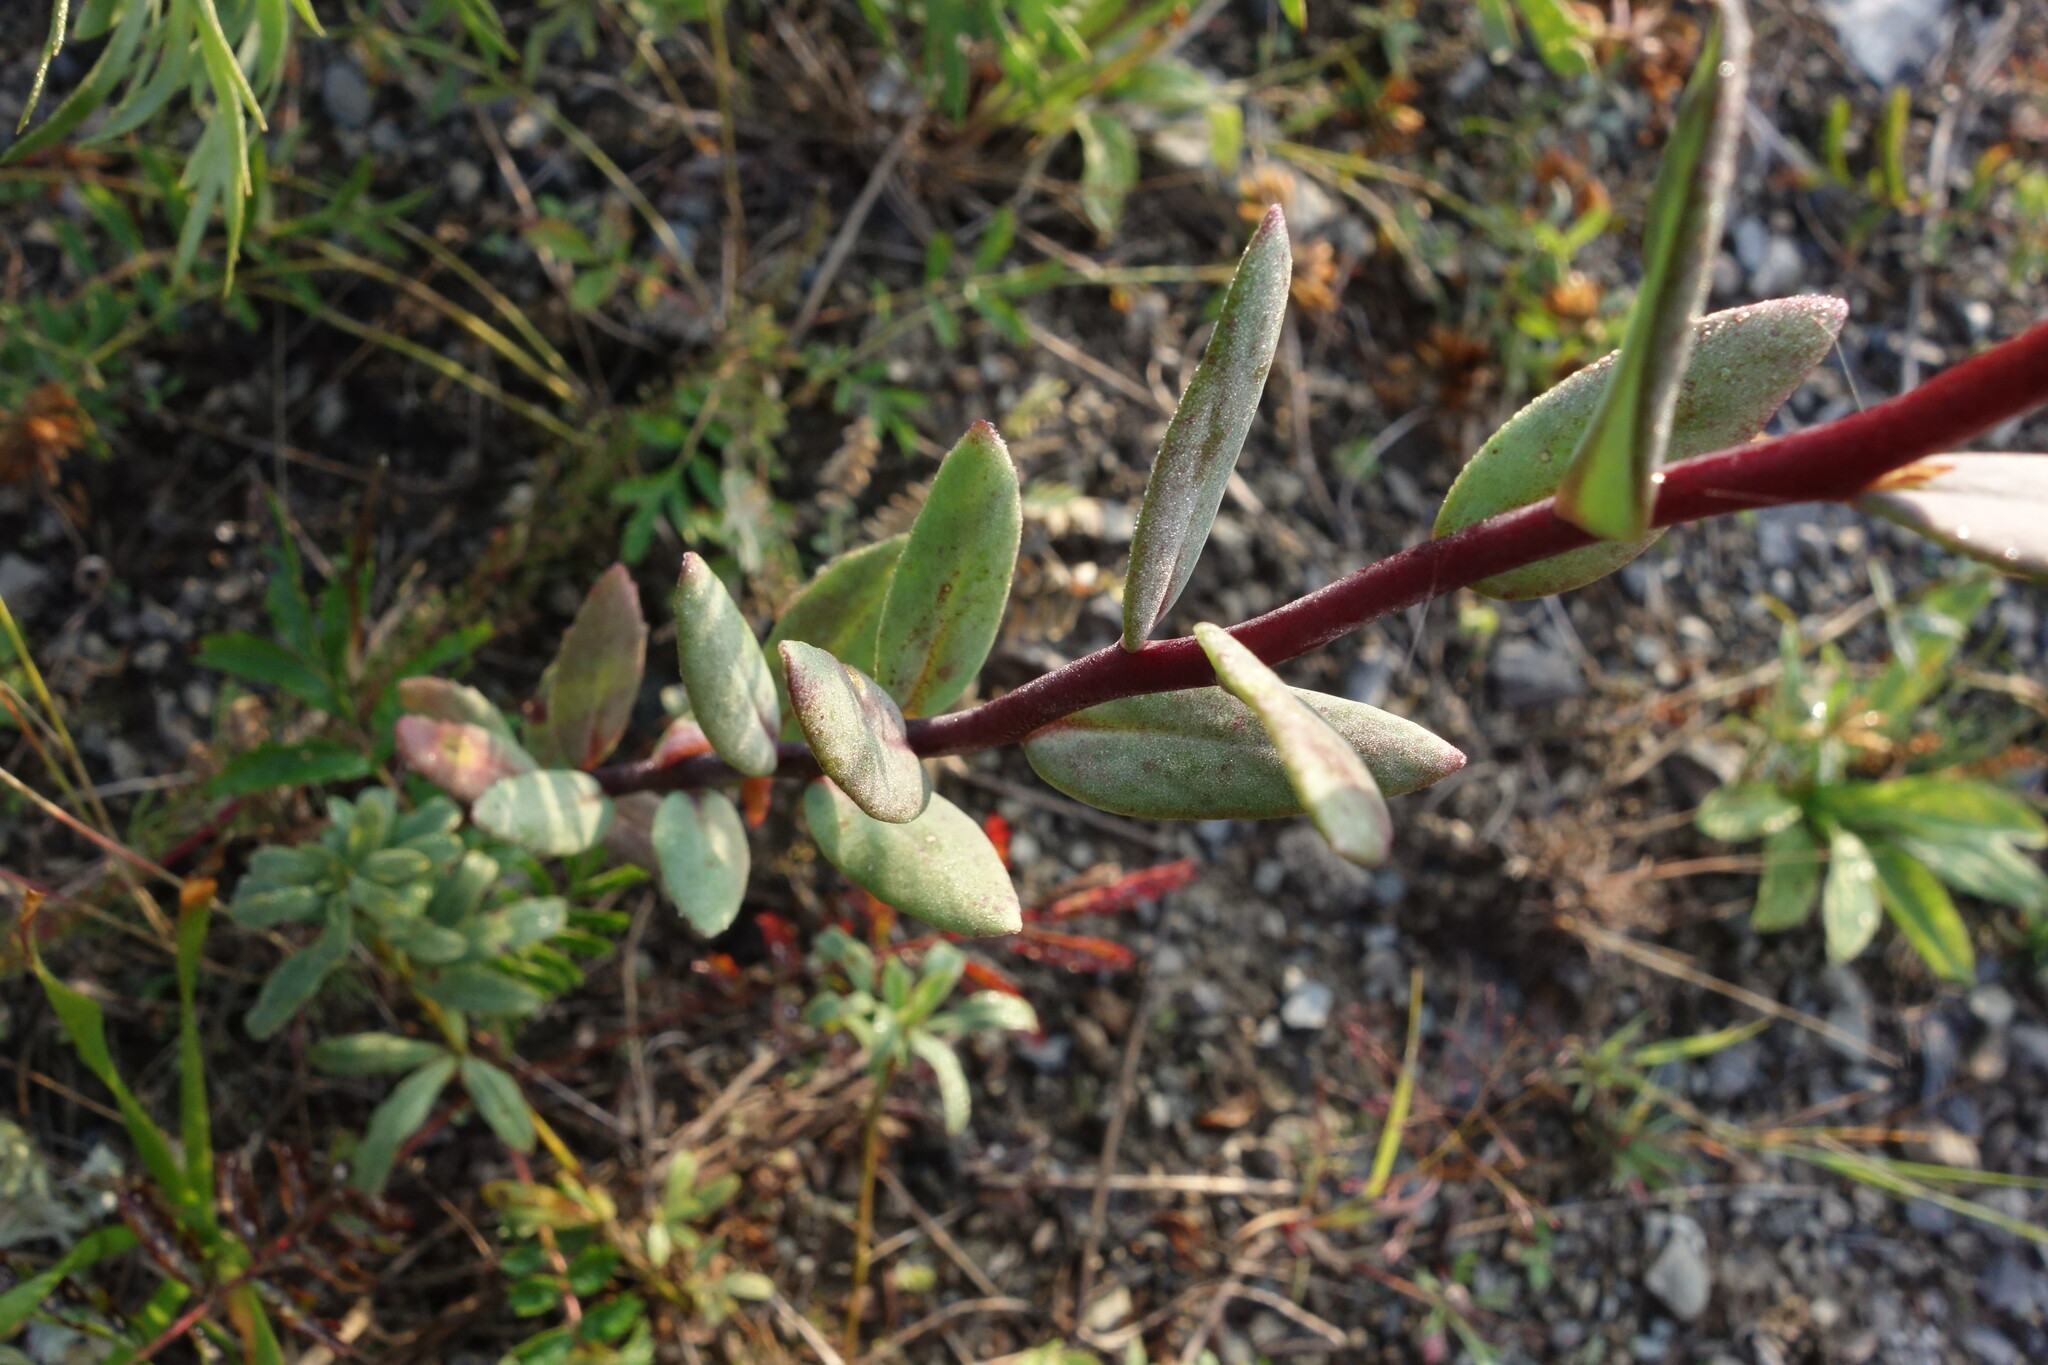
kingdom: Plantae
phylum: Tracheophyta
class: Magnoliopsida
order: Saxifragales
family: Crassulaceae
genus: Hylotelephium
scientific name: Hylotelephium telephium
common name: Live-forever
